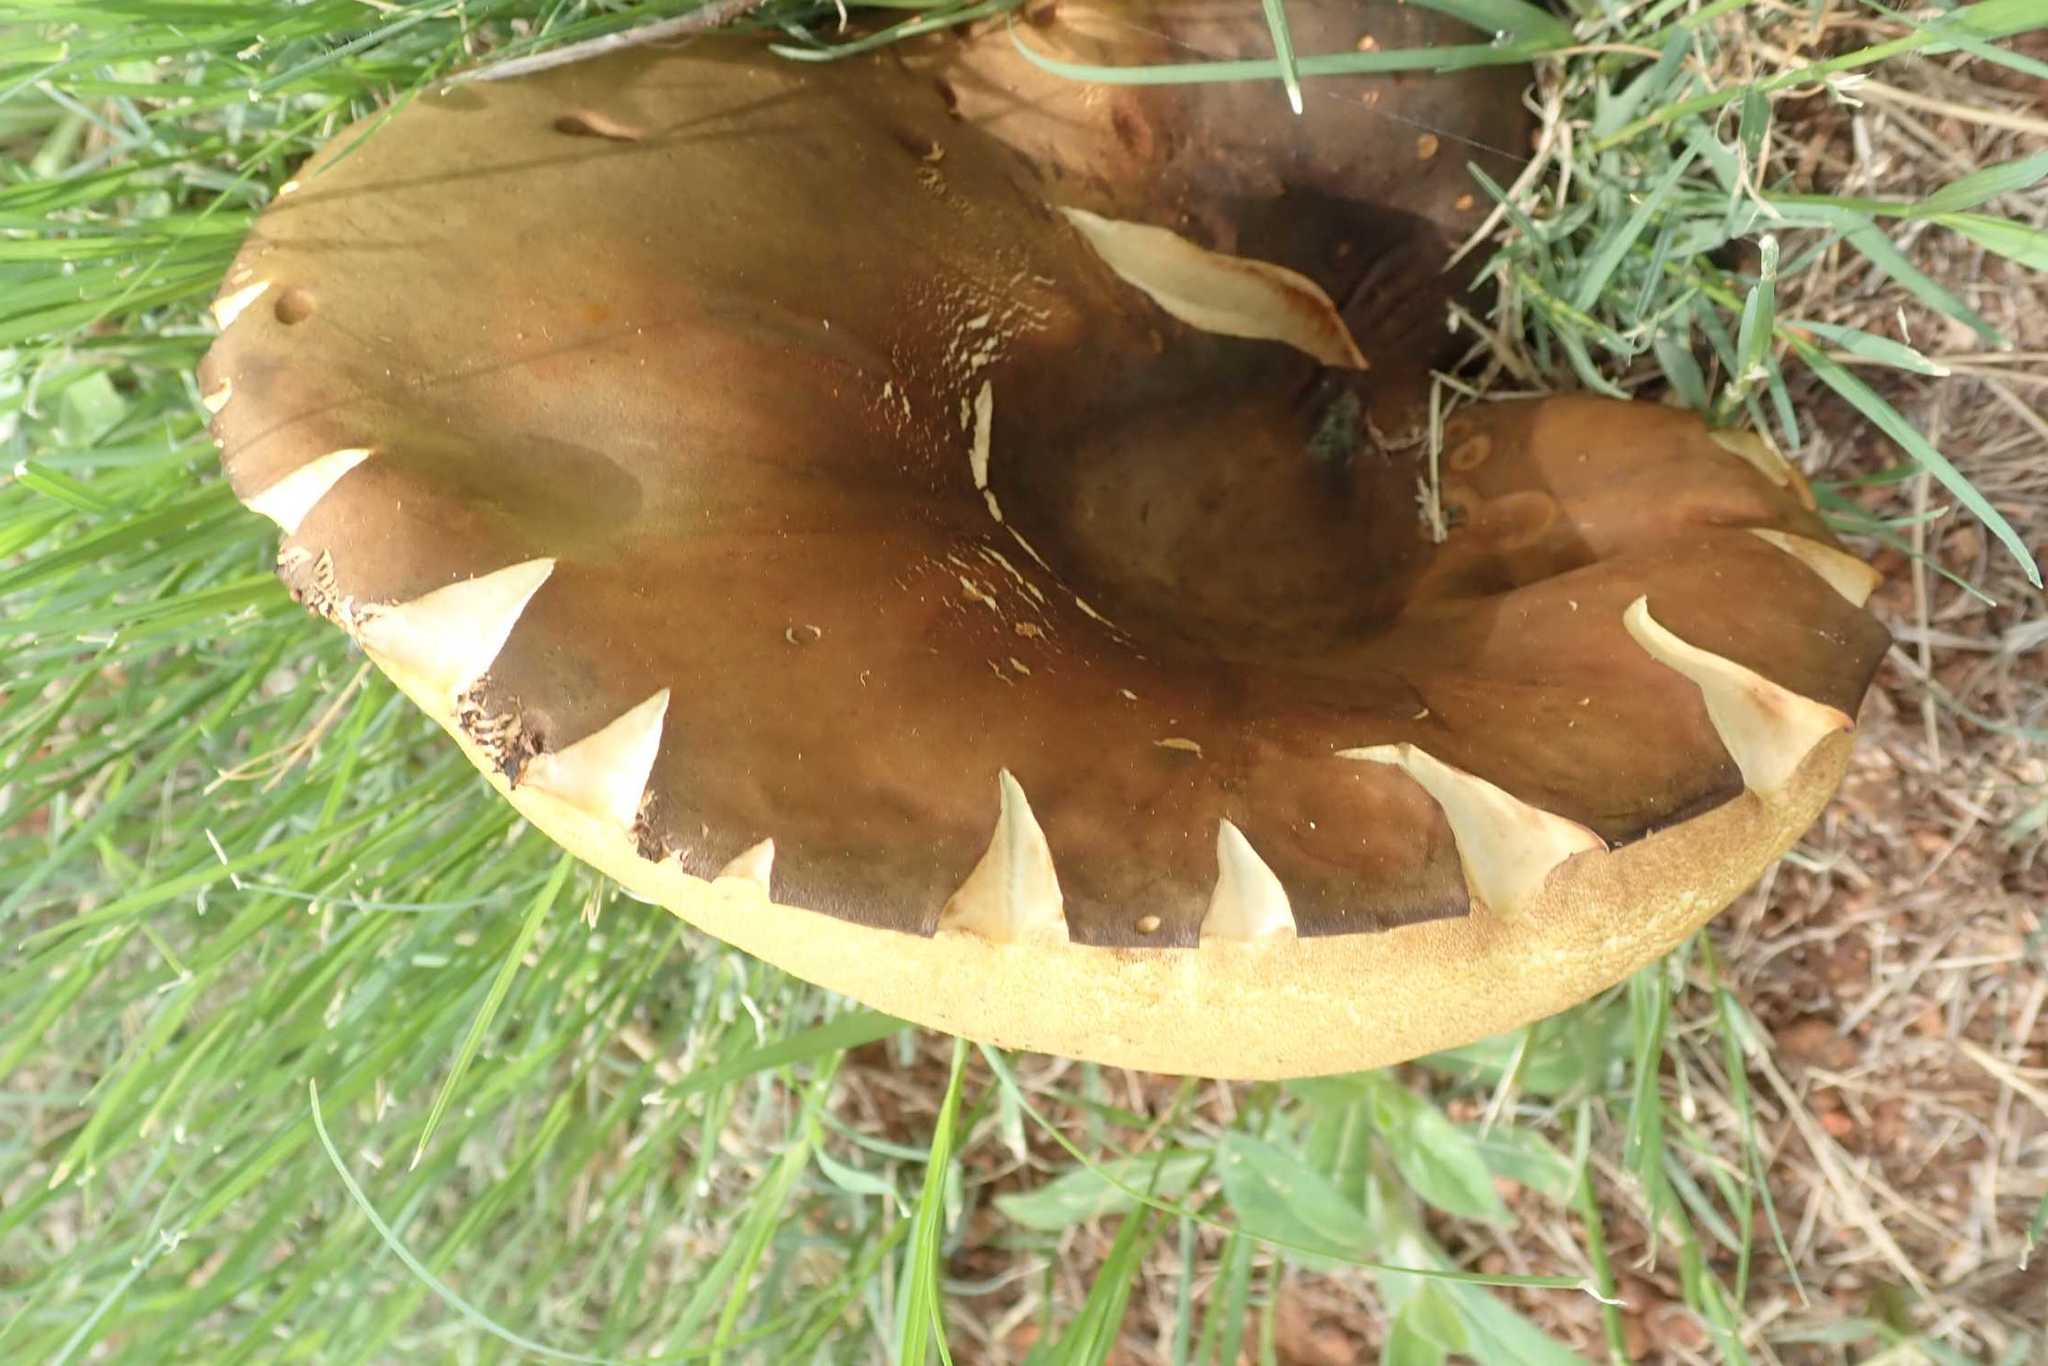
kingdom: Fungi
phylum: Basidiomycota
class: Agaricomycetes
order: Boletales
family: Boletinellaceae
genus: Phlebopus
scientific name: Phlebopus sudanicus
